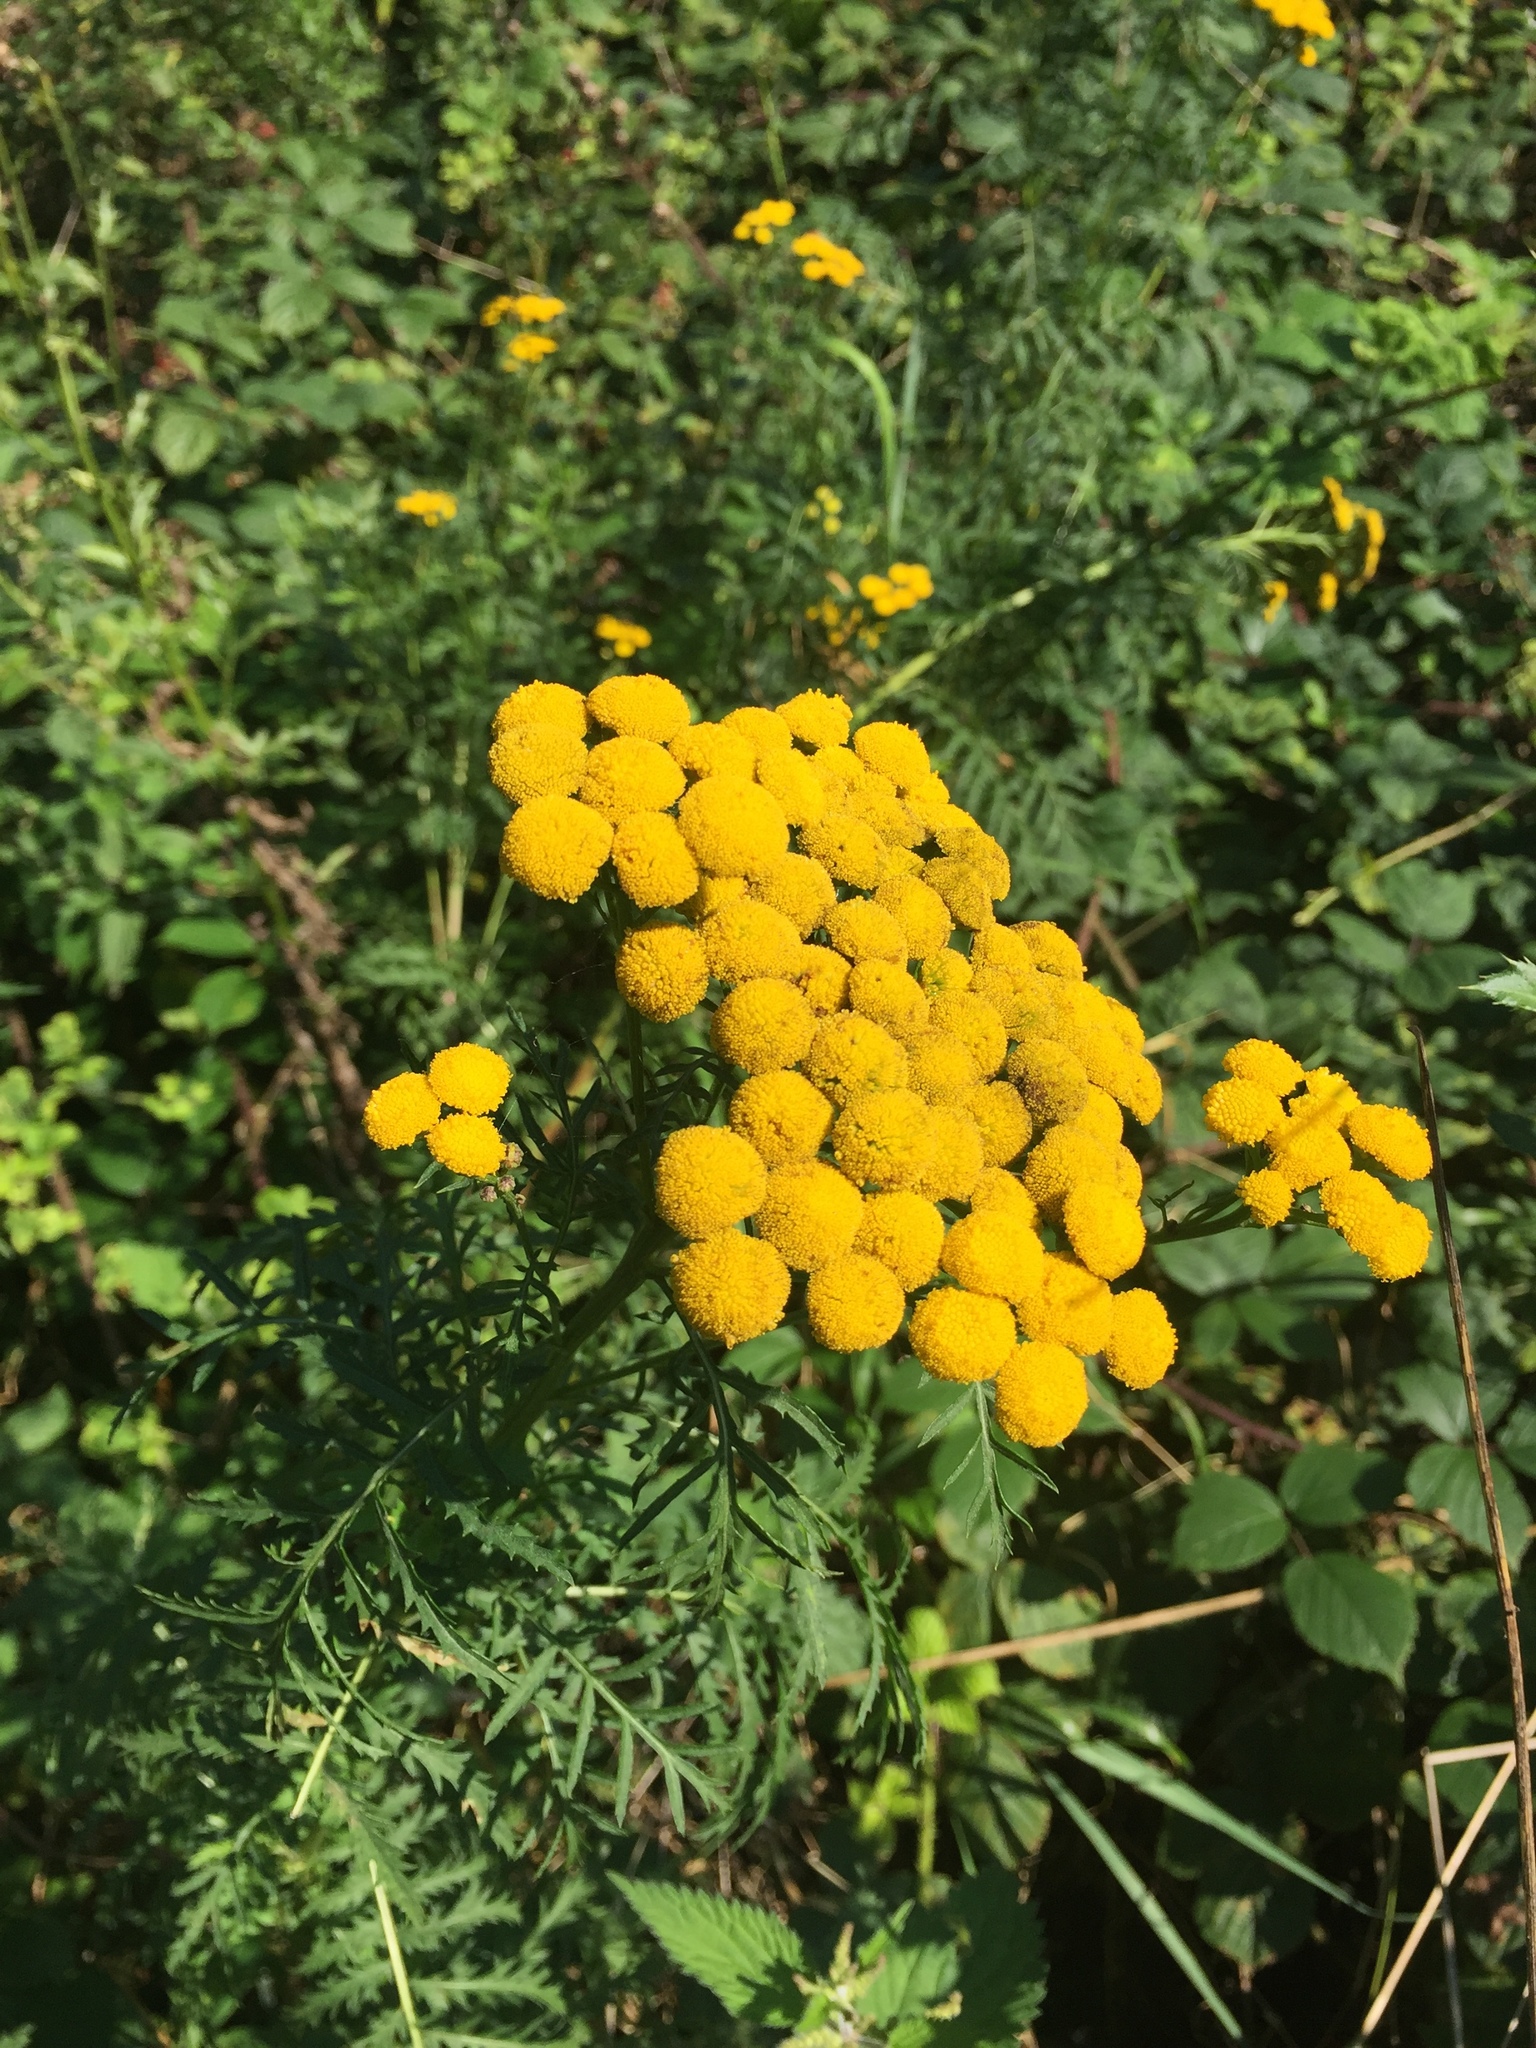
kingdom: Plantae
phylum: Tracheophyta
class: Magnoliopsida
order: Asterales
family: Asteraceae
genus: Tanacetum
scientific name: Tanacetum vulgare
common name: Common tansy
